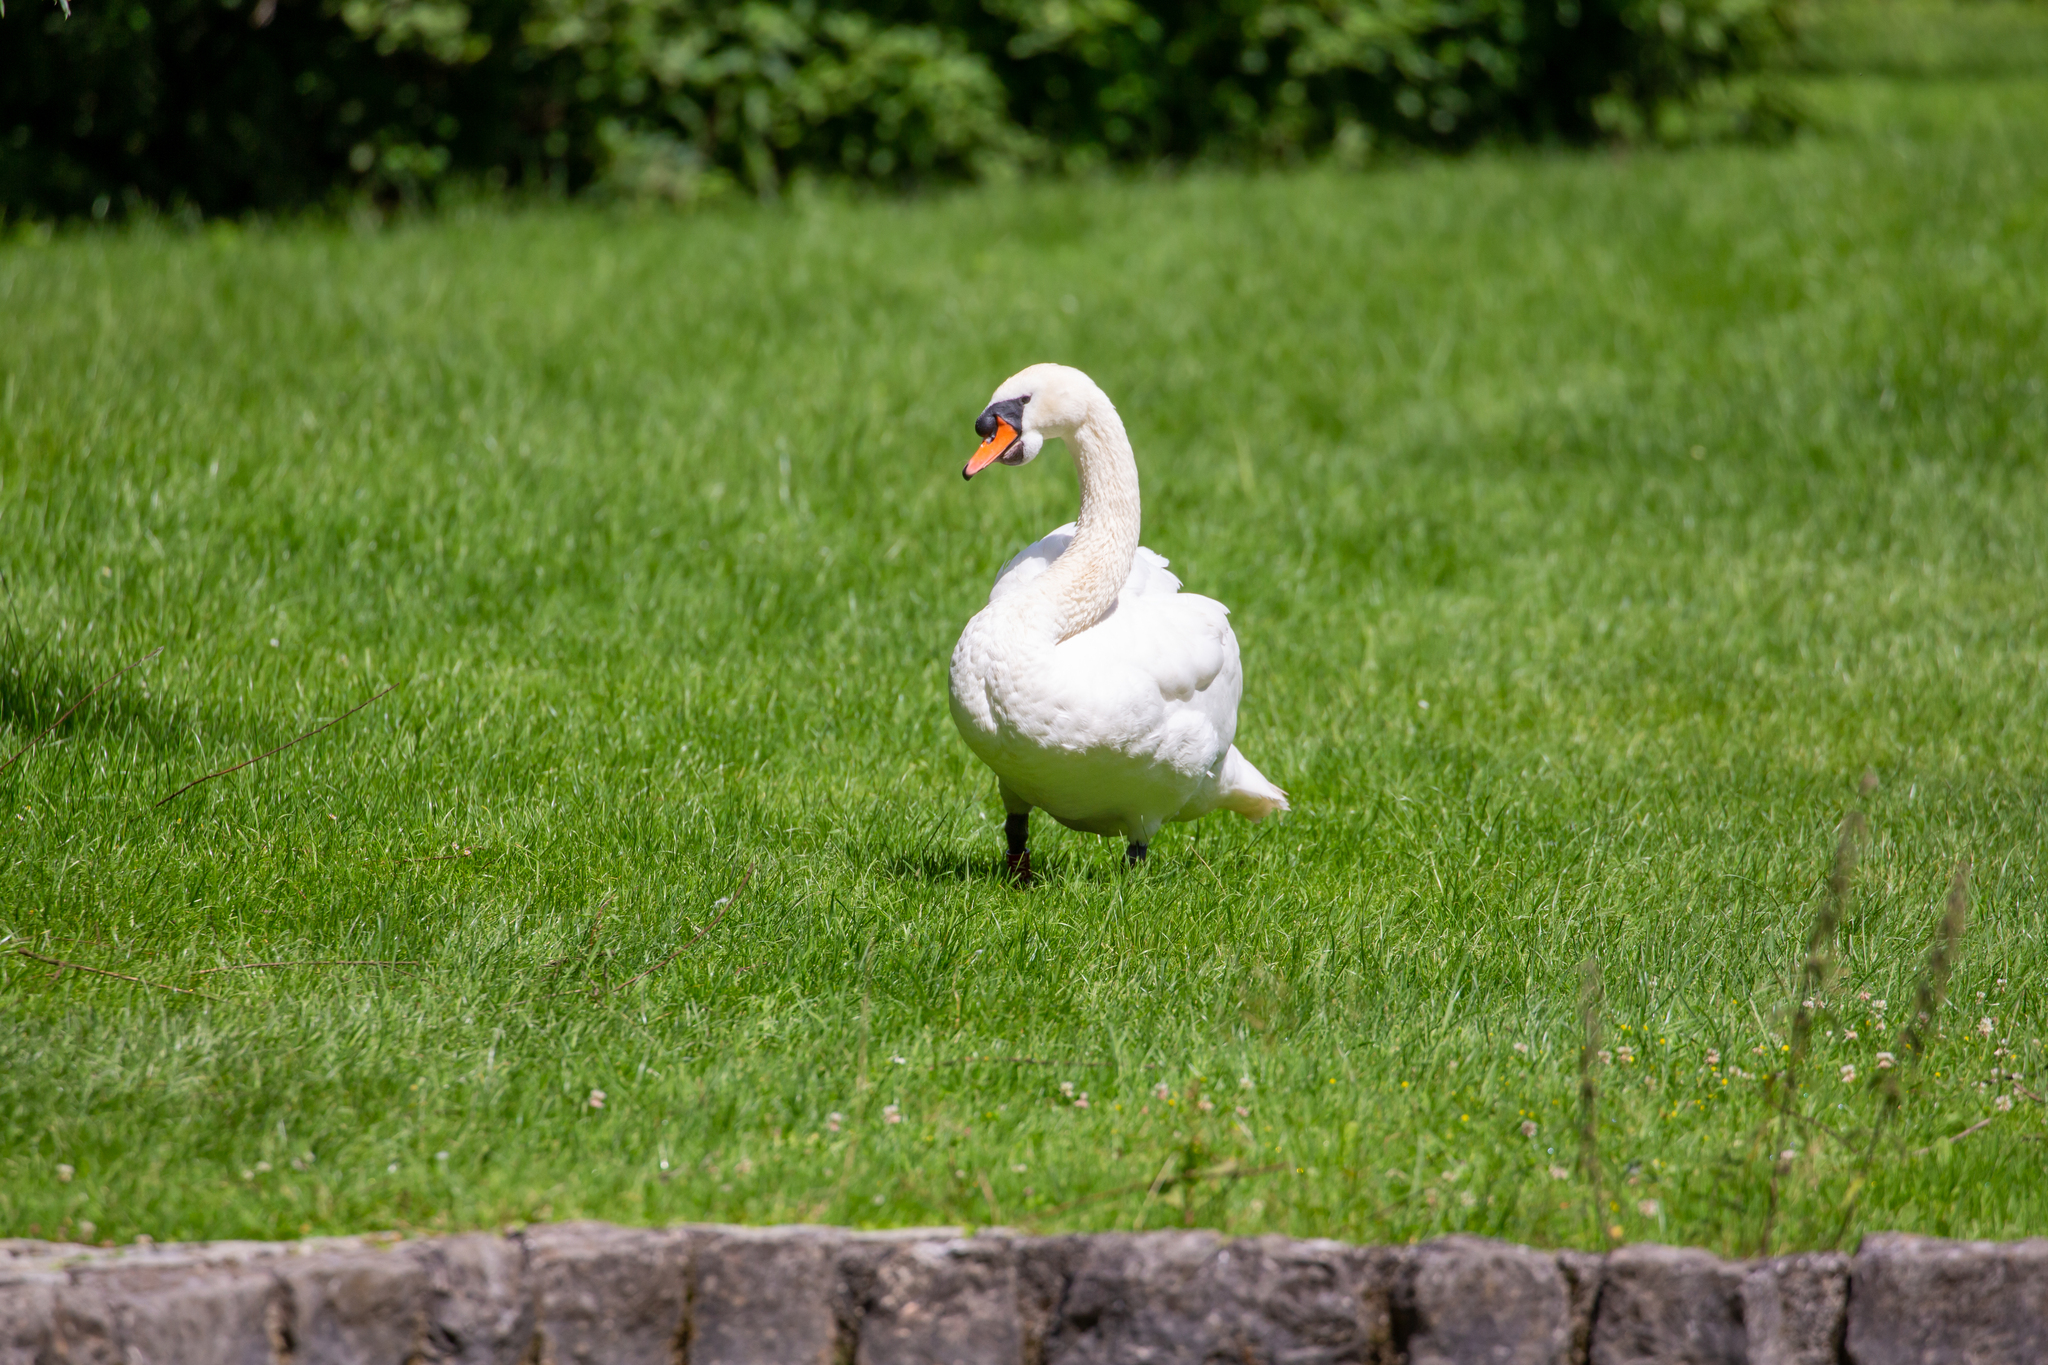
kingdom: Animalia
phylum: Chordata
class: Aves
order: Anseriformes
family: Anatidae
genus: Cygnus
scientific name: Cygnus olor
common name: Mute swan
